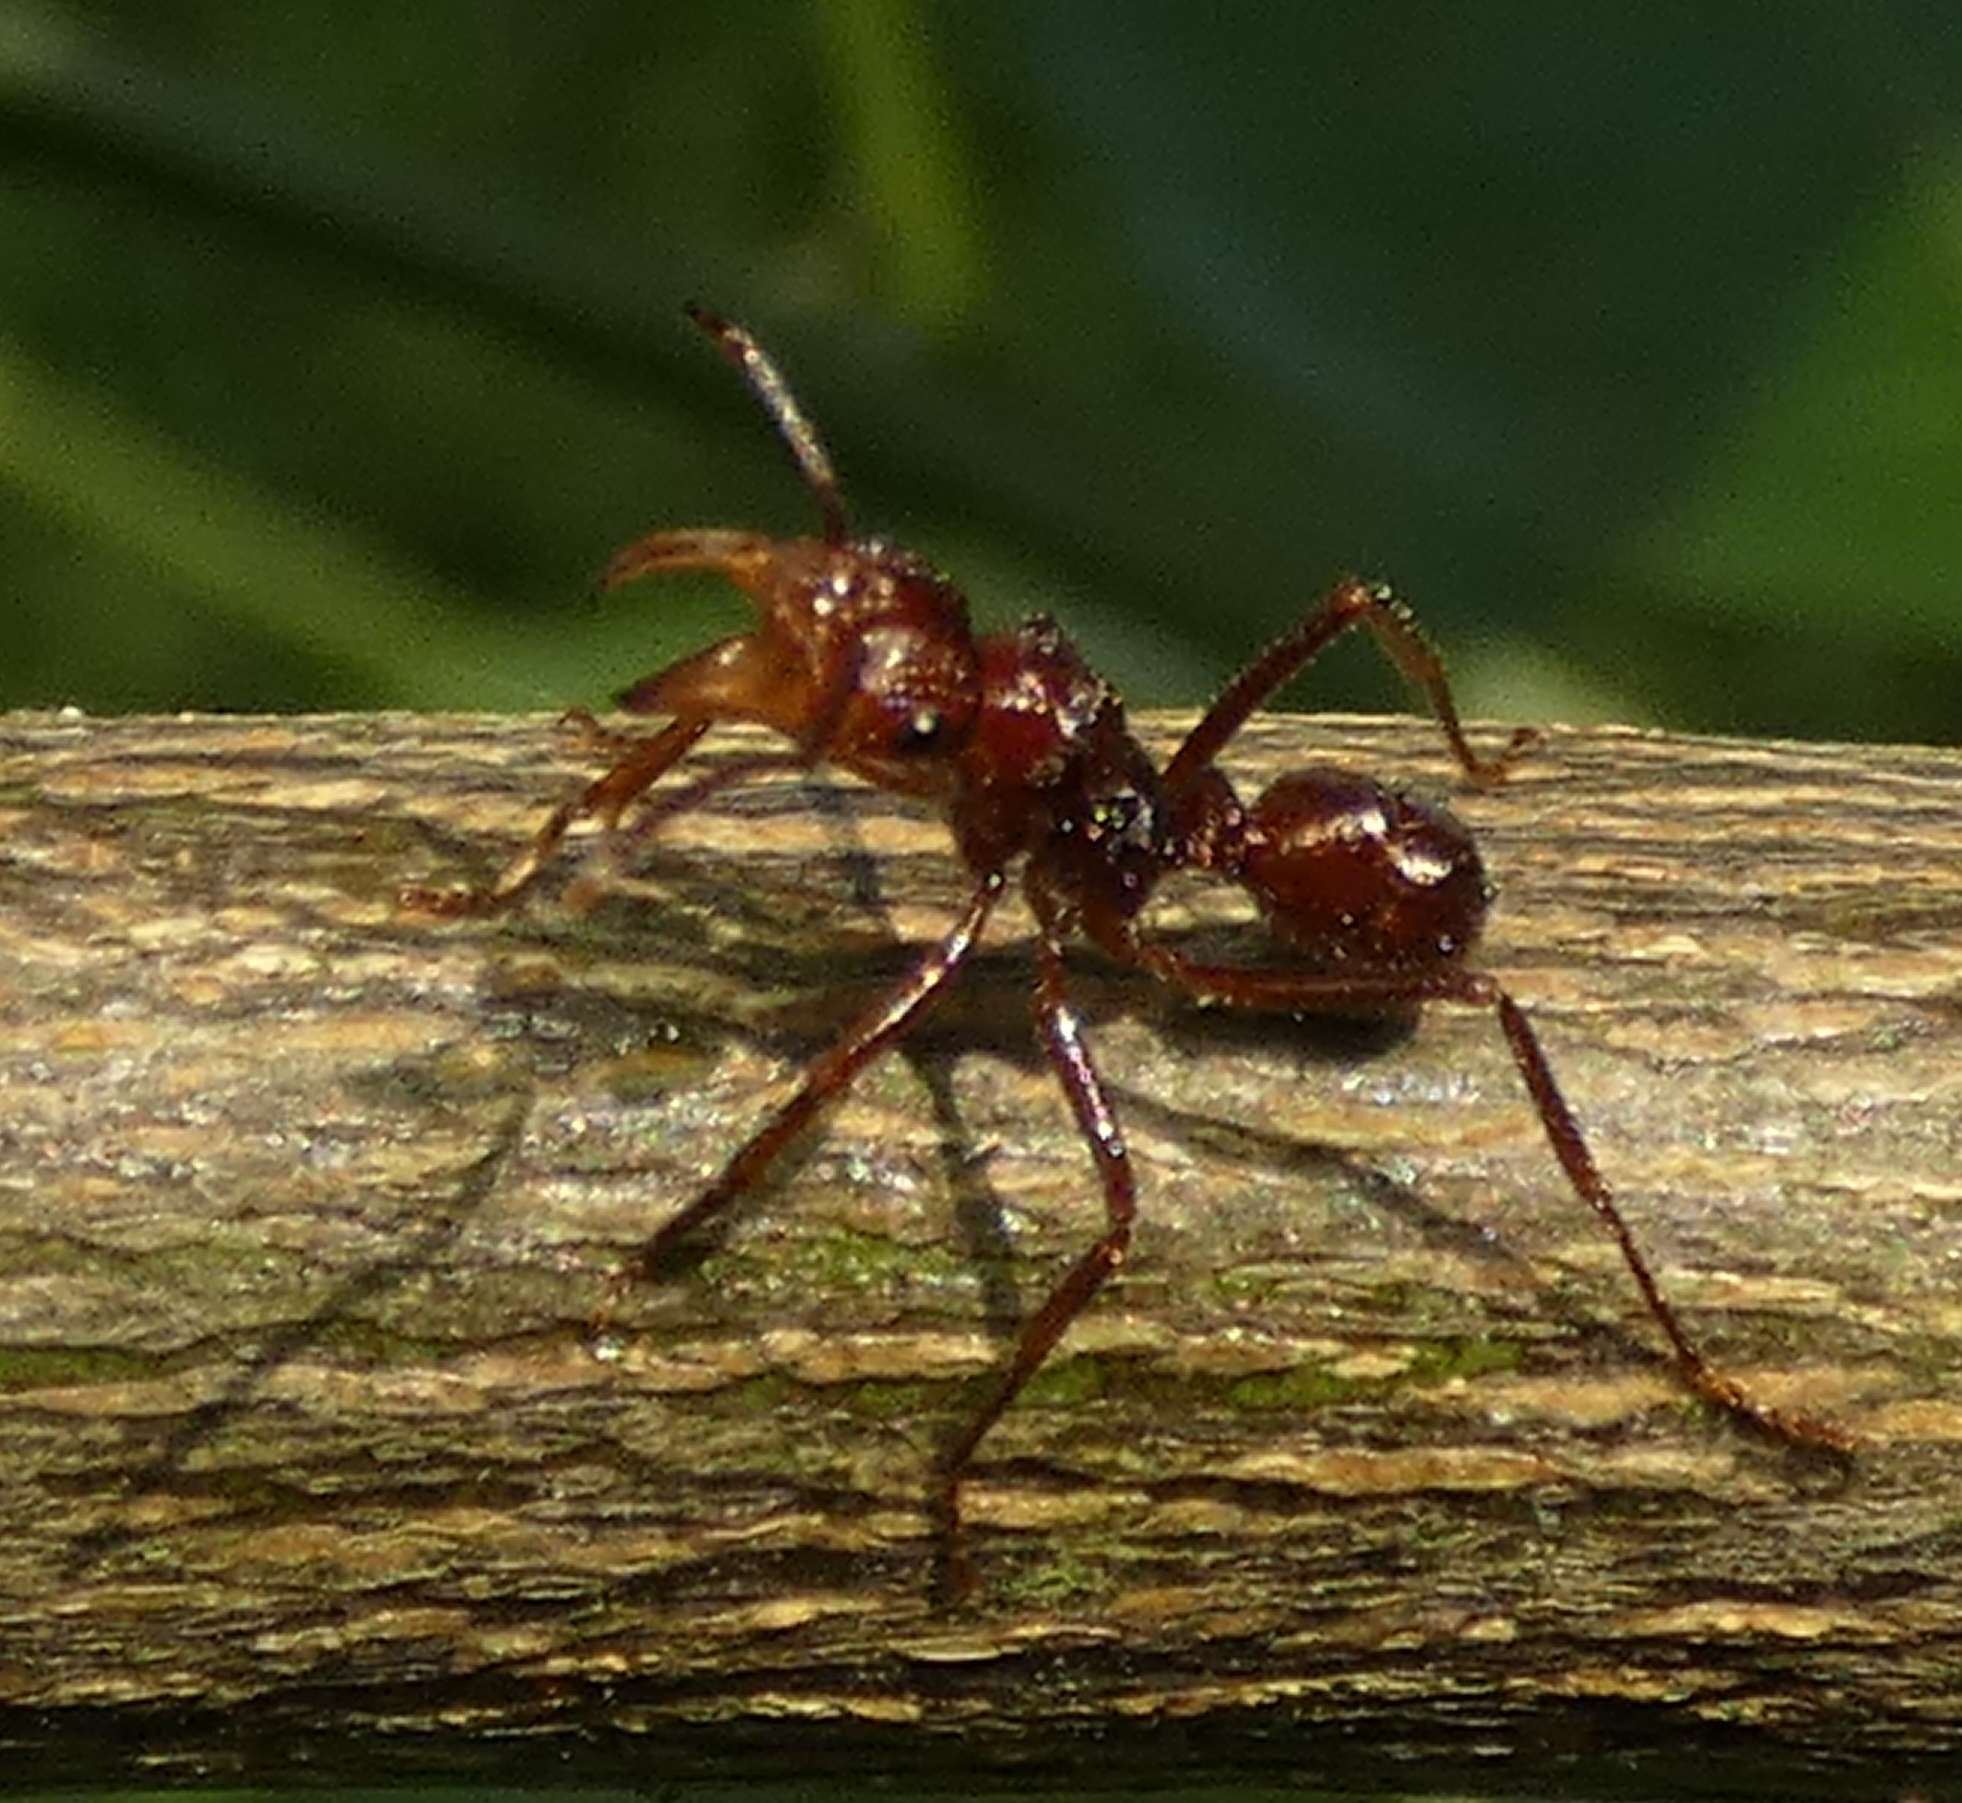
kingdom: Animalia
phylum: Arthropoda
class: Insecta
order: Hymenoptera
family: Formicidae
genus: Ectatomma
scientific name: Ectatomma tuberculatum
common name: Ant
